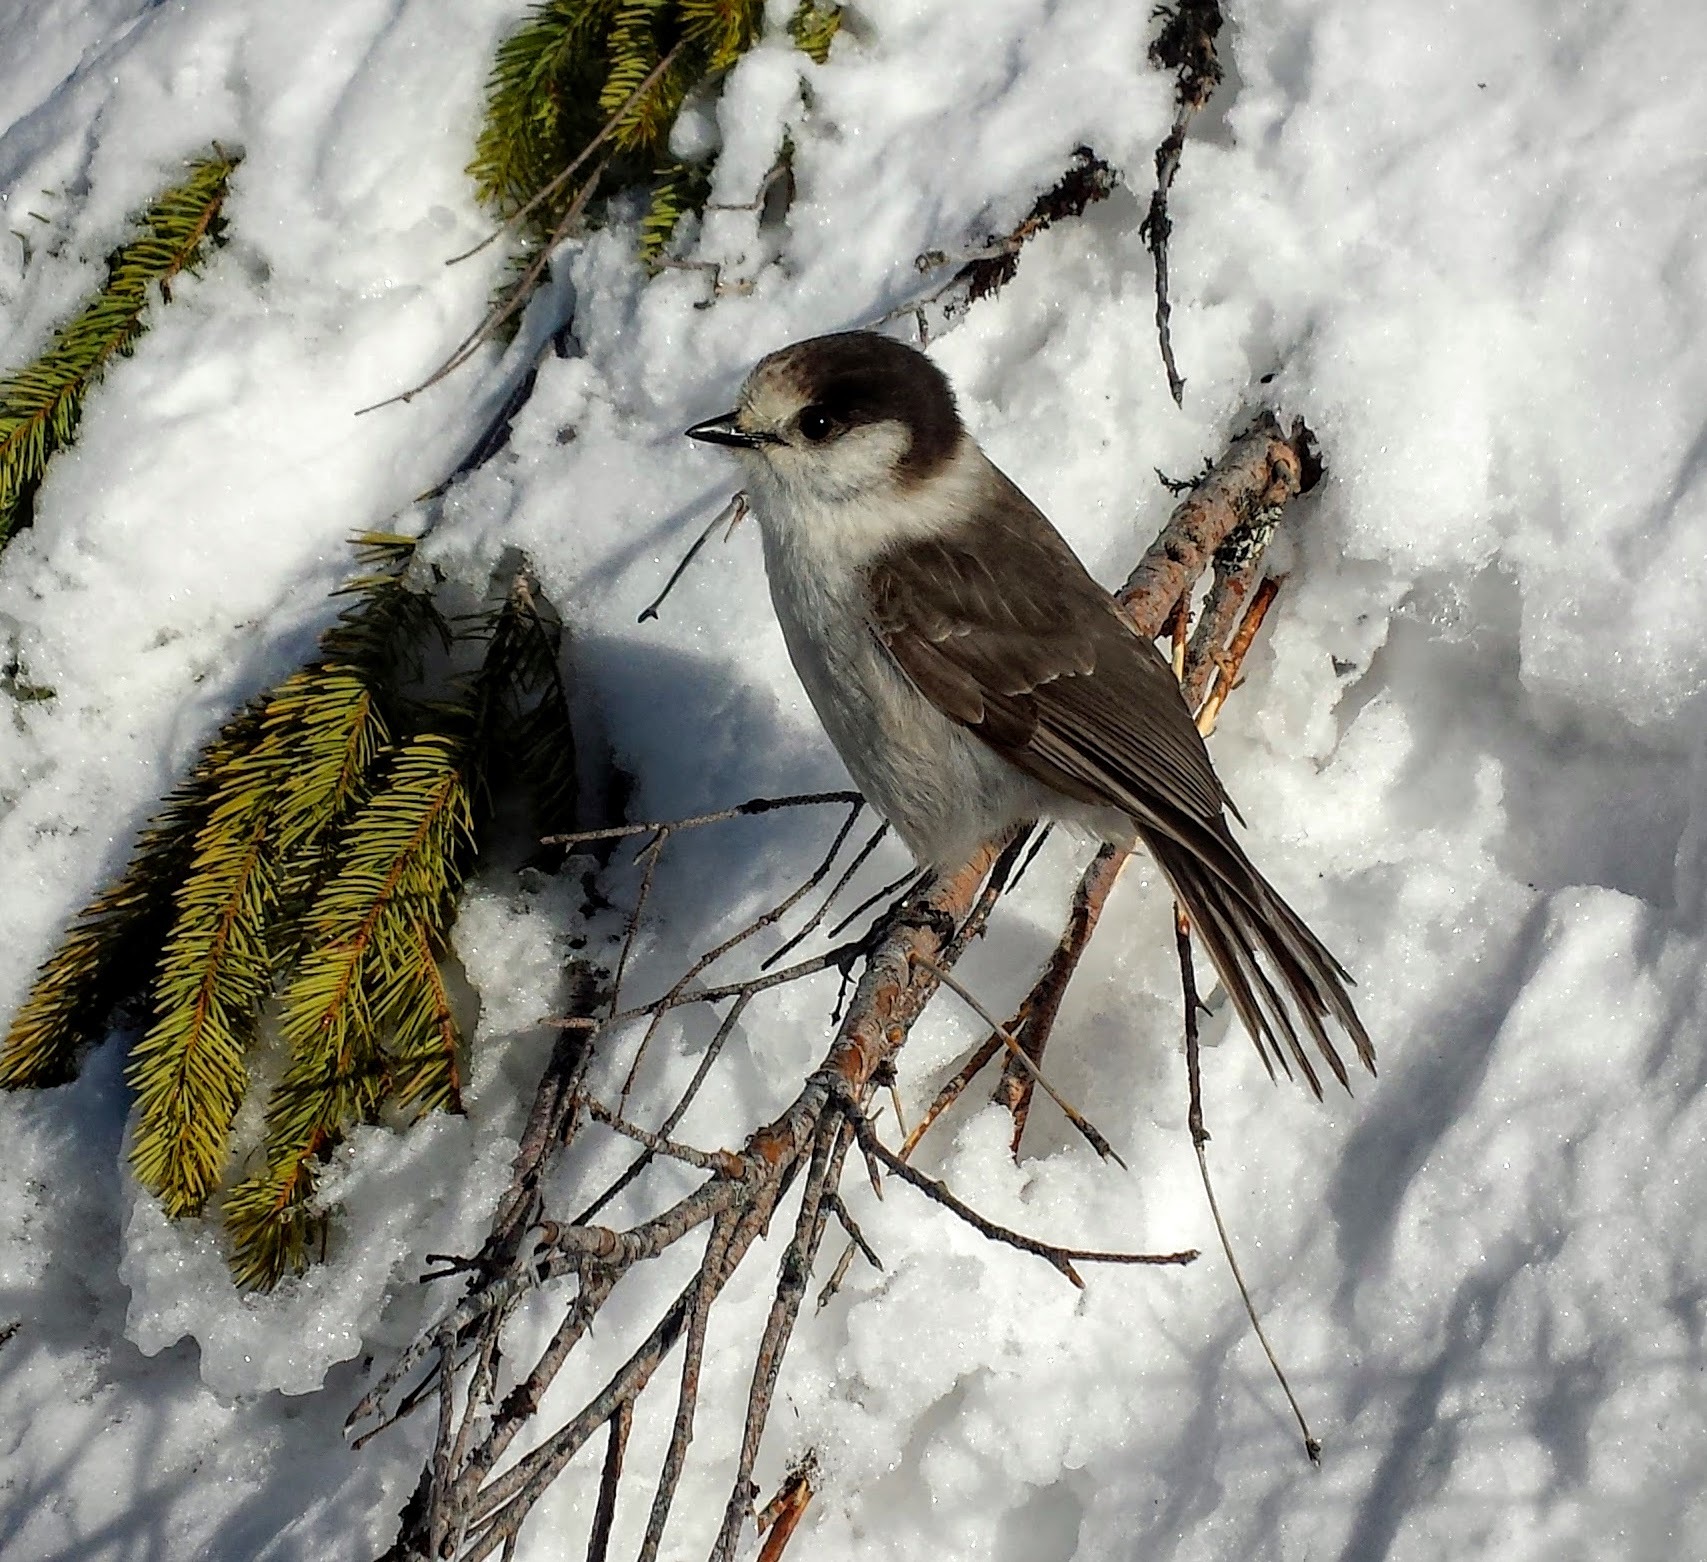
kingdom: Animalia
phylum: Chordata
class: Aves
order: Passeriformes
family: Corvidae
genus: Perisoreus
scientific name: Perisoreus canadensis
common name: Gray jay
